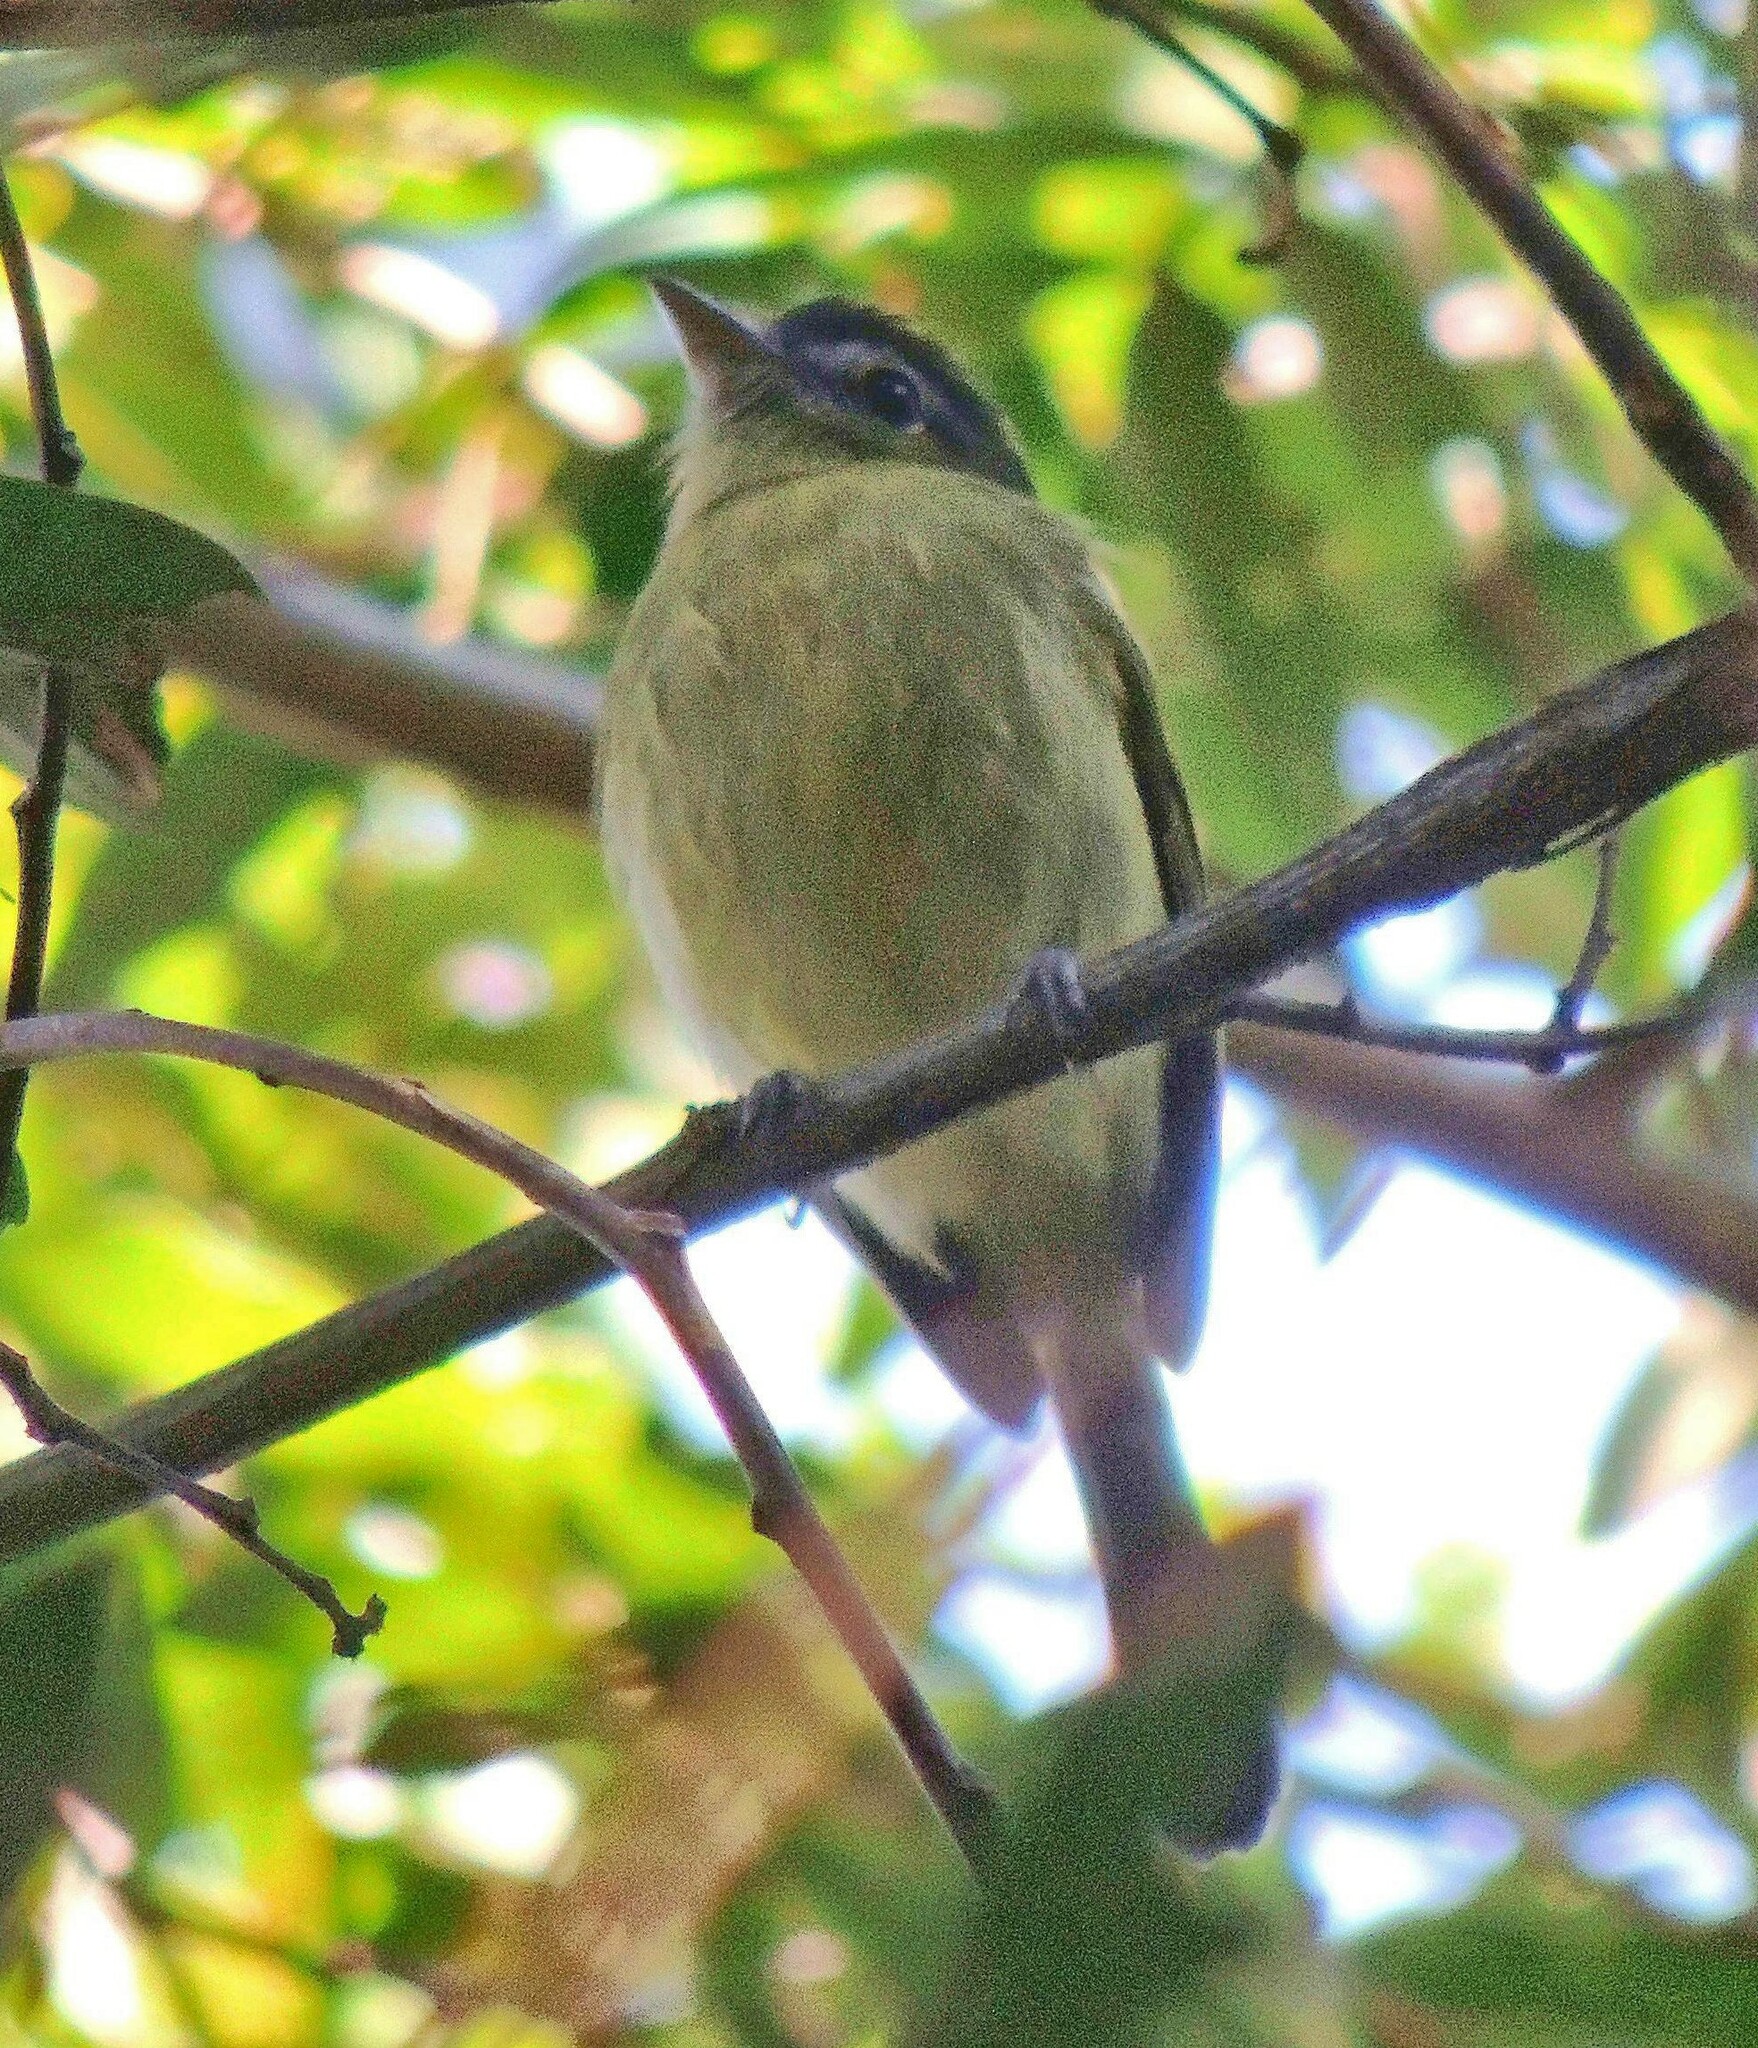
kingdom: Animalia
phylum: Chordata
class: Aves
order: Passeriformes
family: Tyrannidae
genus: Tolmomyias
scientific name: Tolmomyias sulphurescens
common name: Yellow-olive flycatcher
